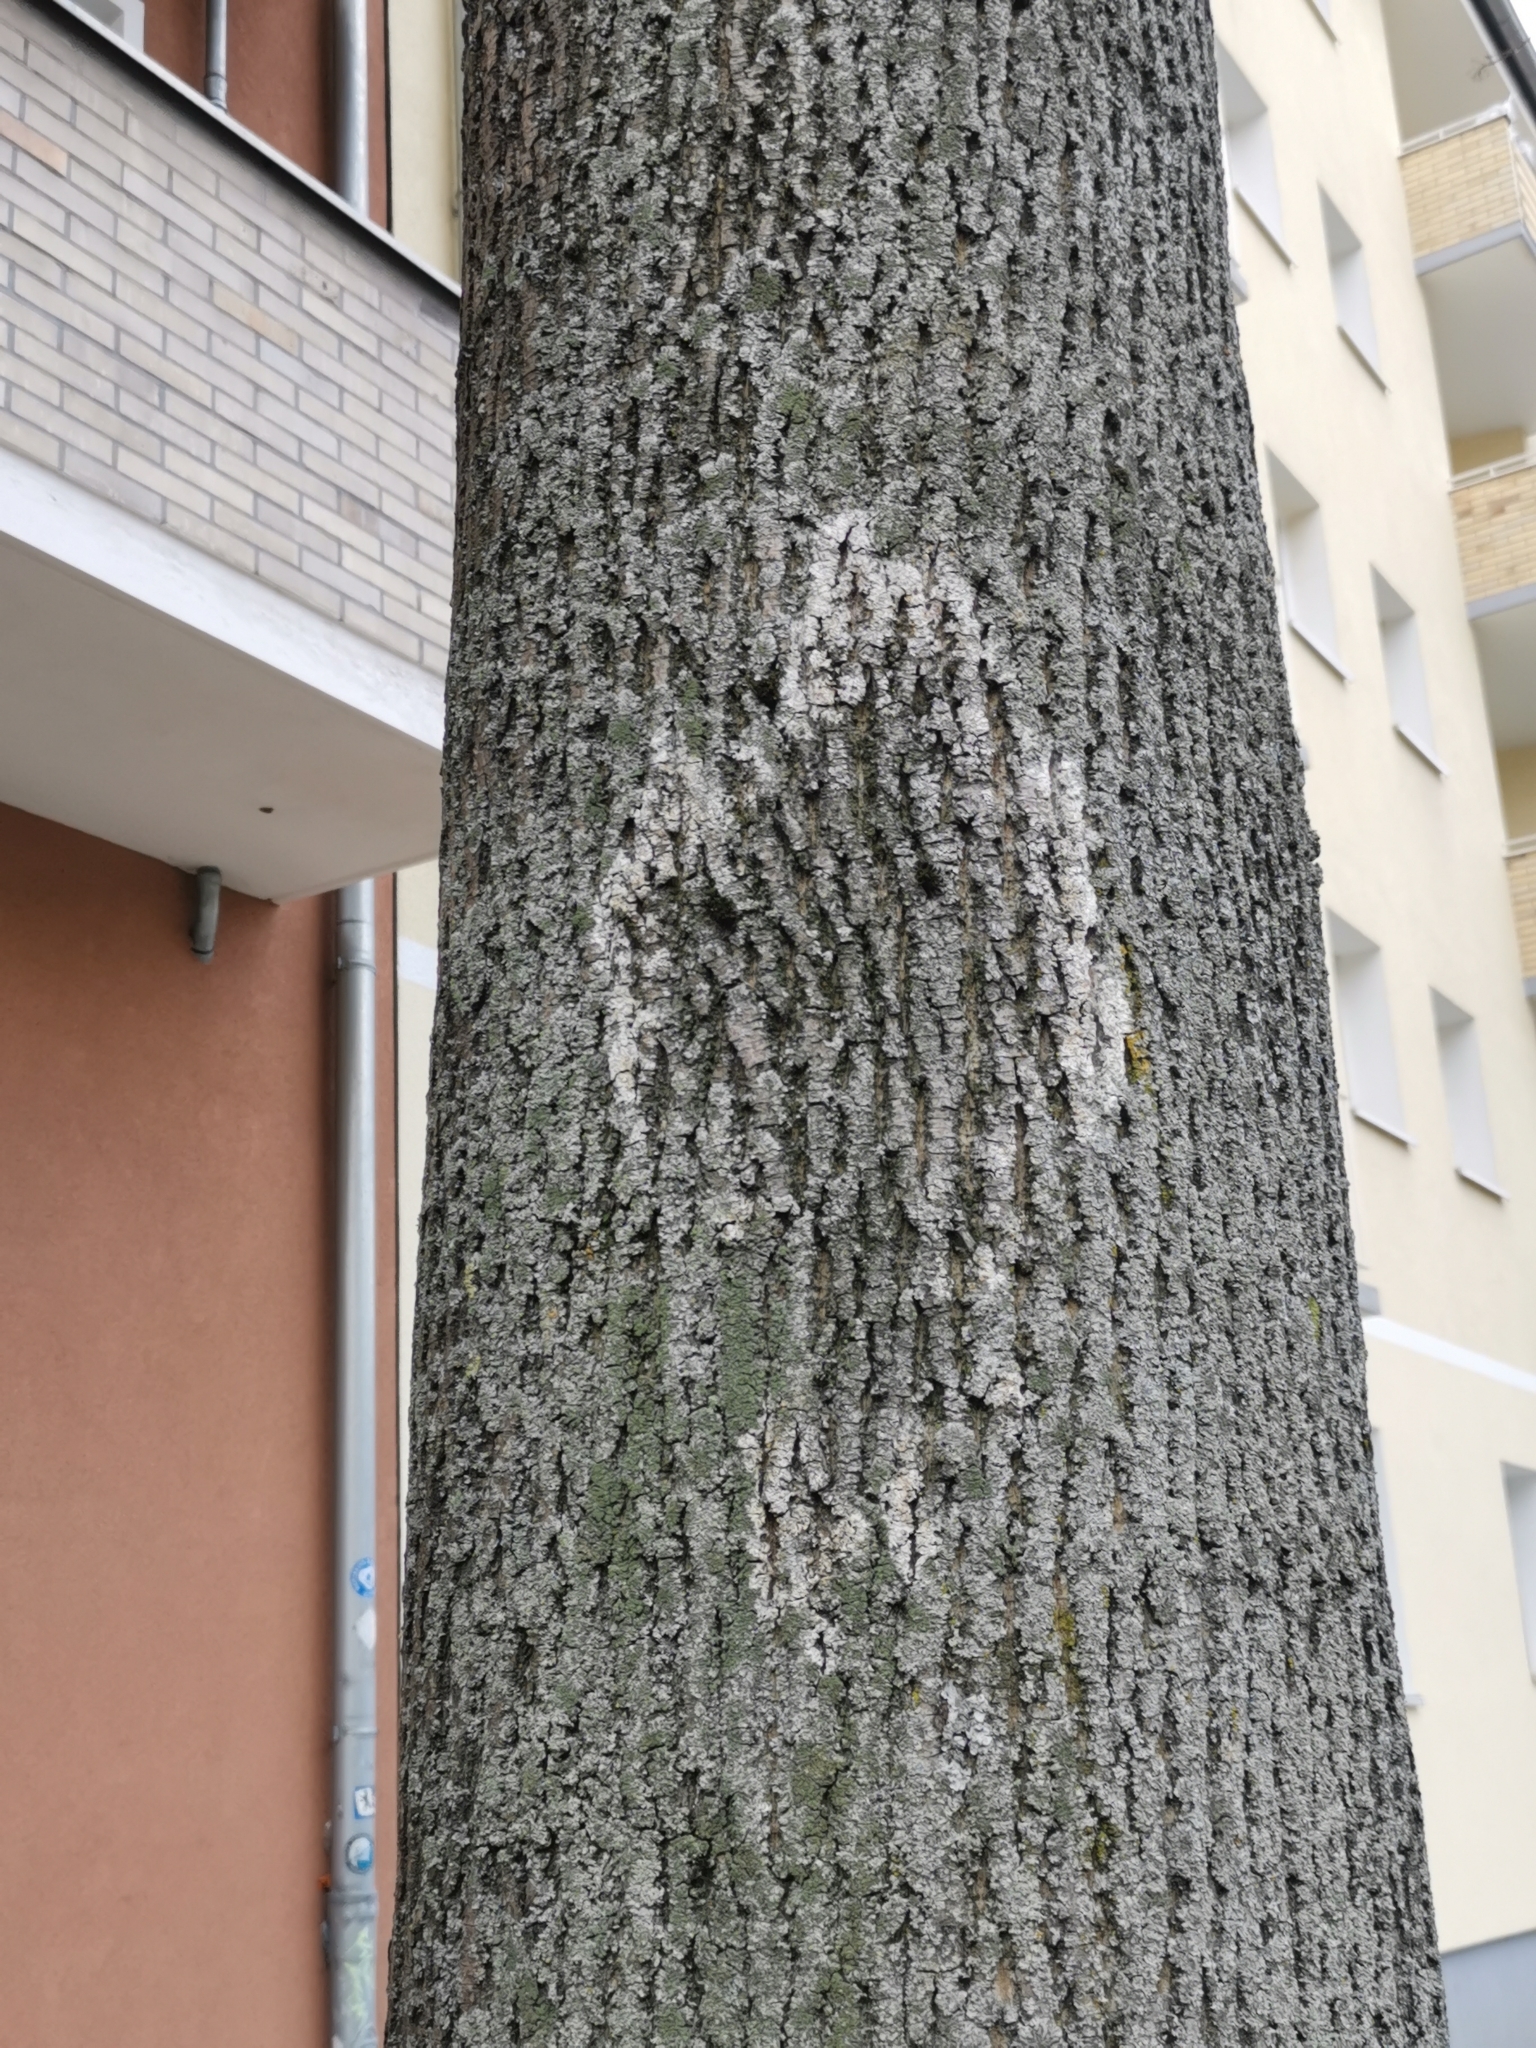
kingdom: Fungi
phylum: Basidiomycota
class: Agaricomycetes
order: Atheliales
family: Atheliaceae
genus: Athelia
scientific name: Athelia arachnoidea
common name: Candelabra duster
